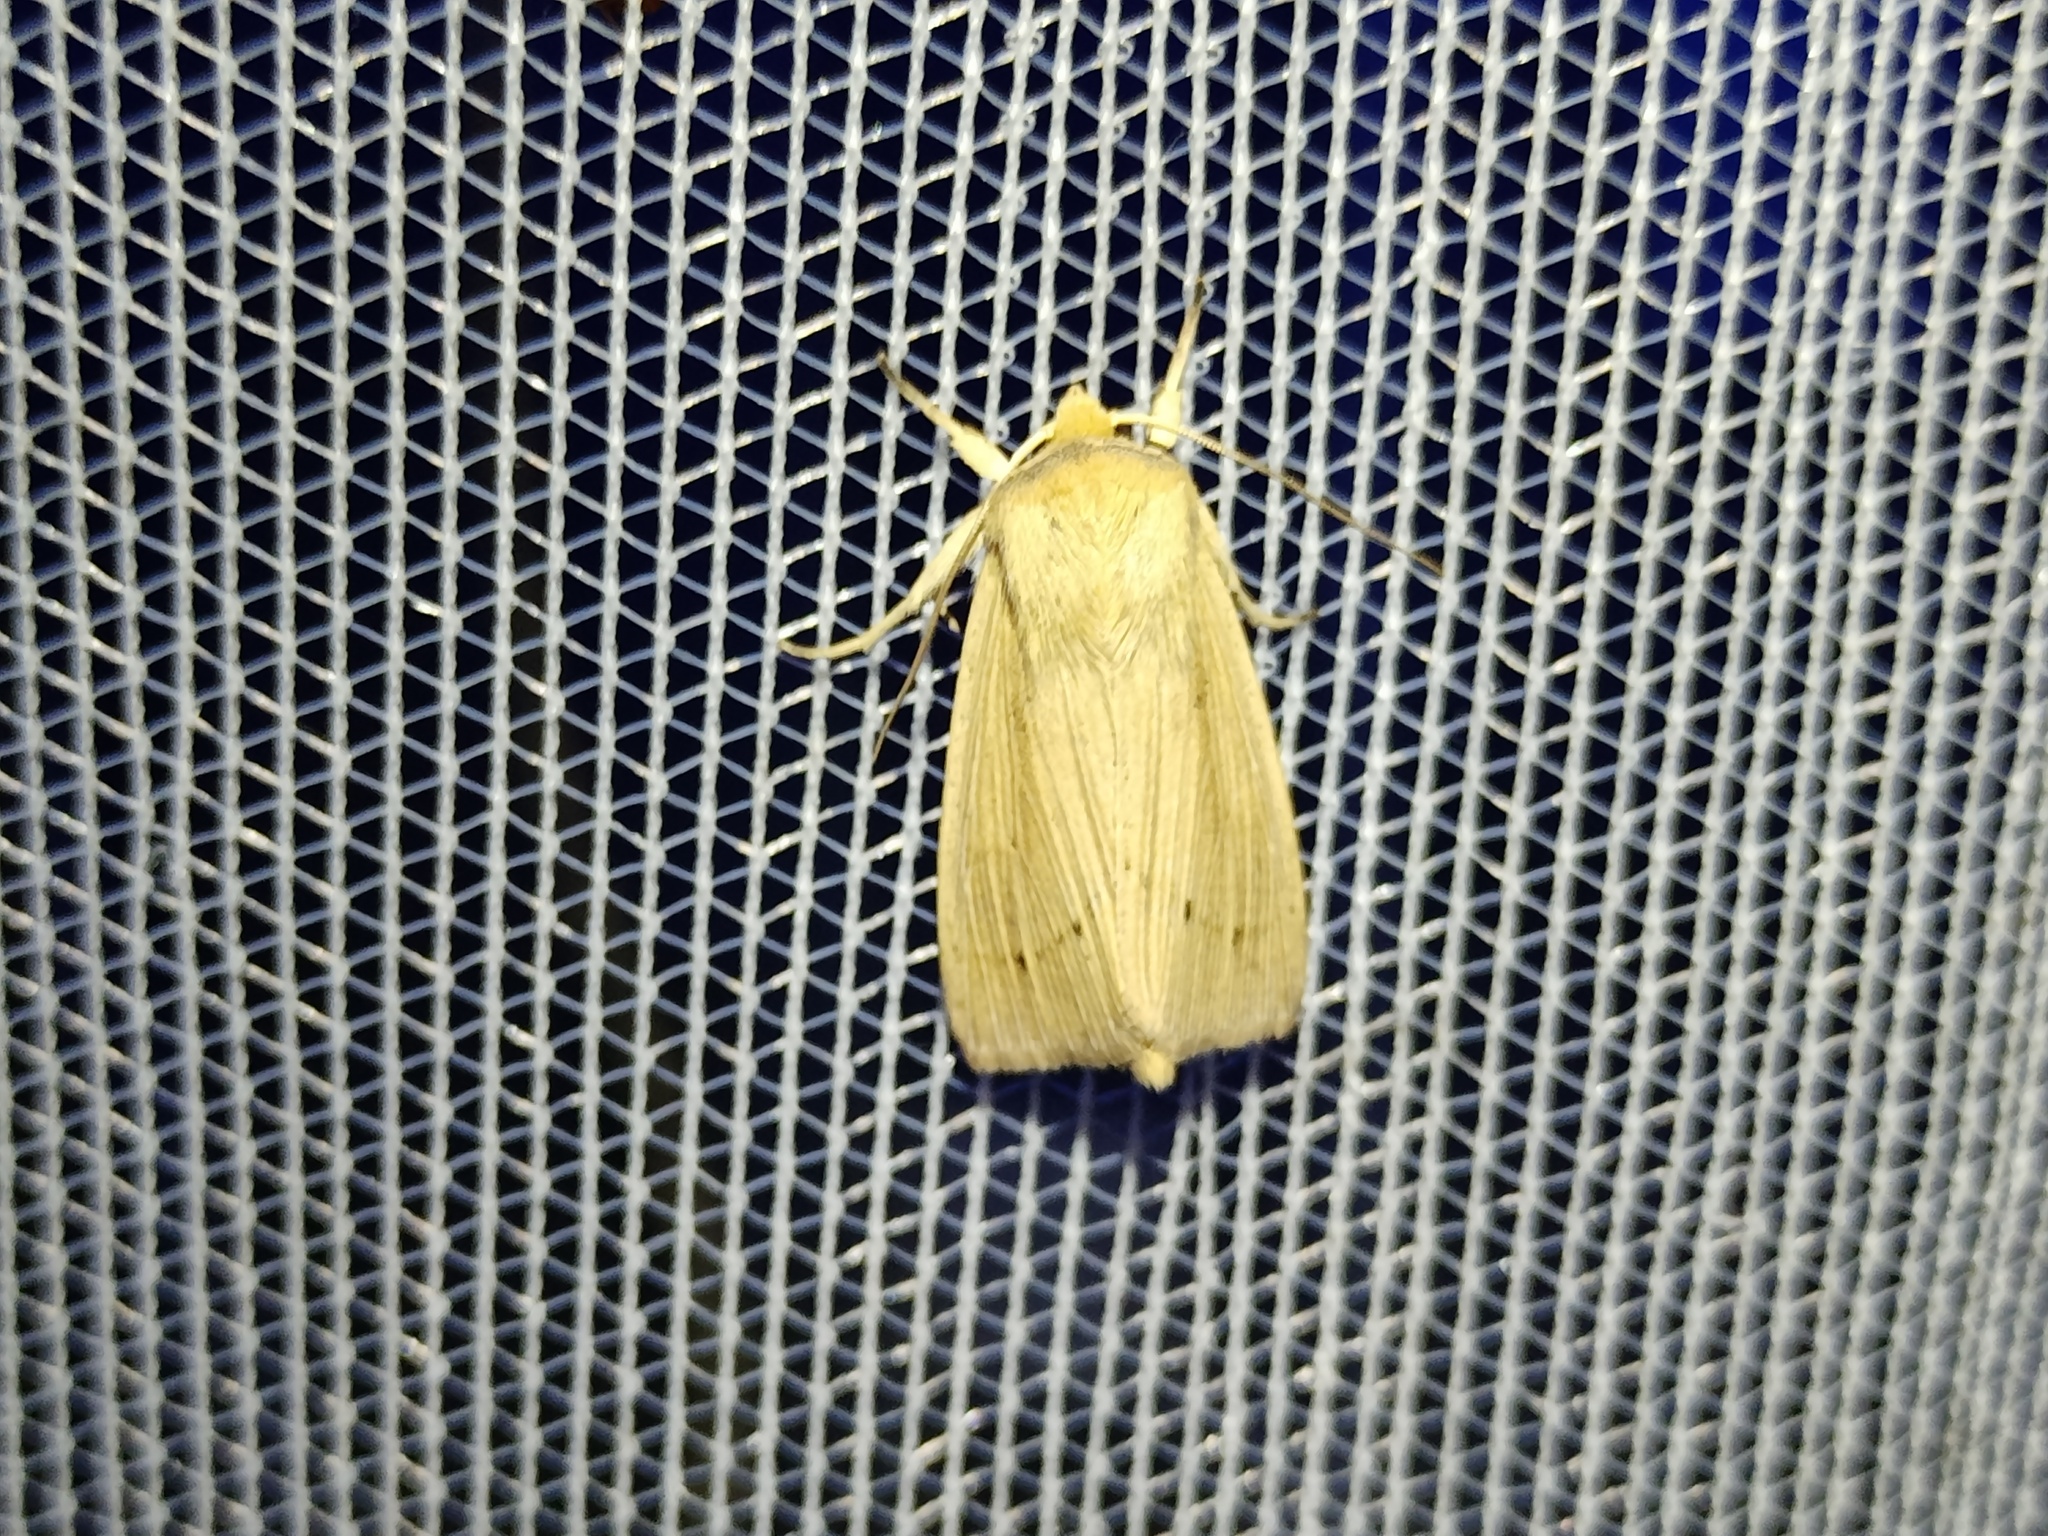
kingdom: Animalia
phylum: Arthropoda
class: Insecta
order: Lepidoptera
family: Noctuidae
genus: Mythimna
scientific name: Mythimna straminea
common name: Southern wainscot
